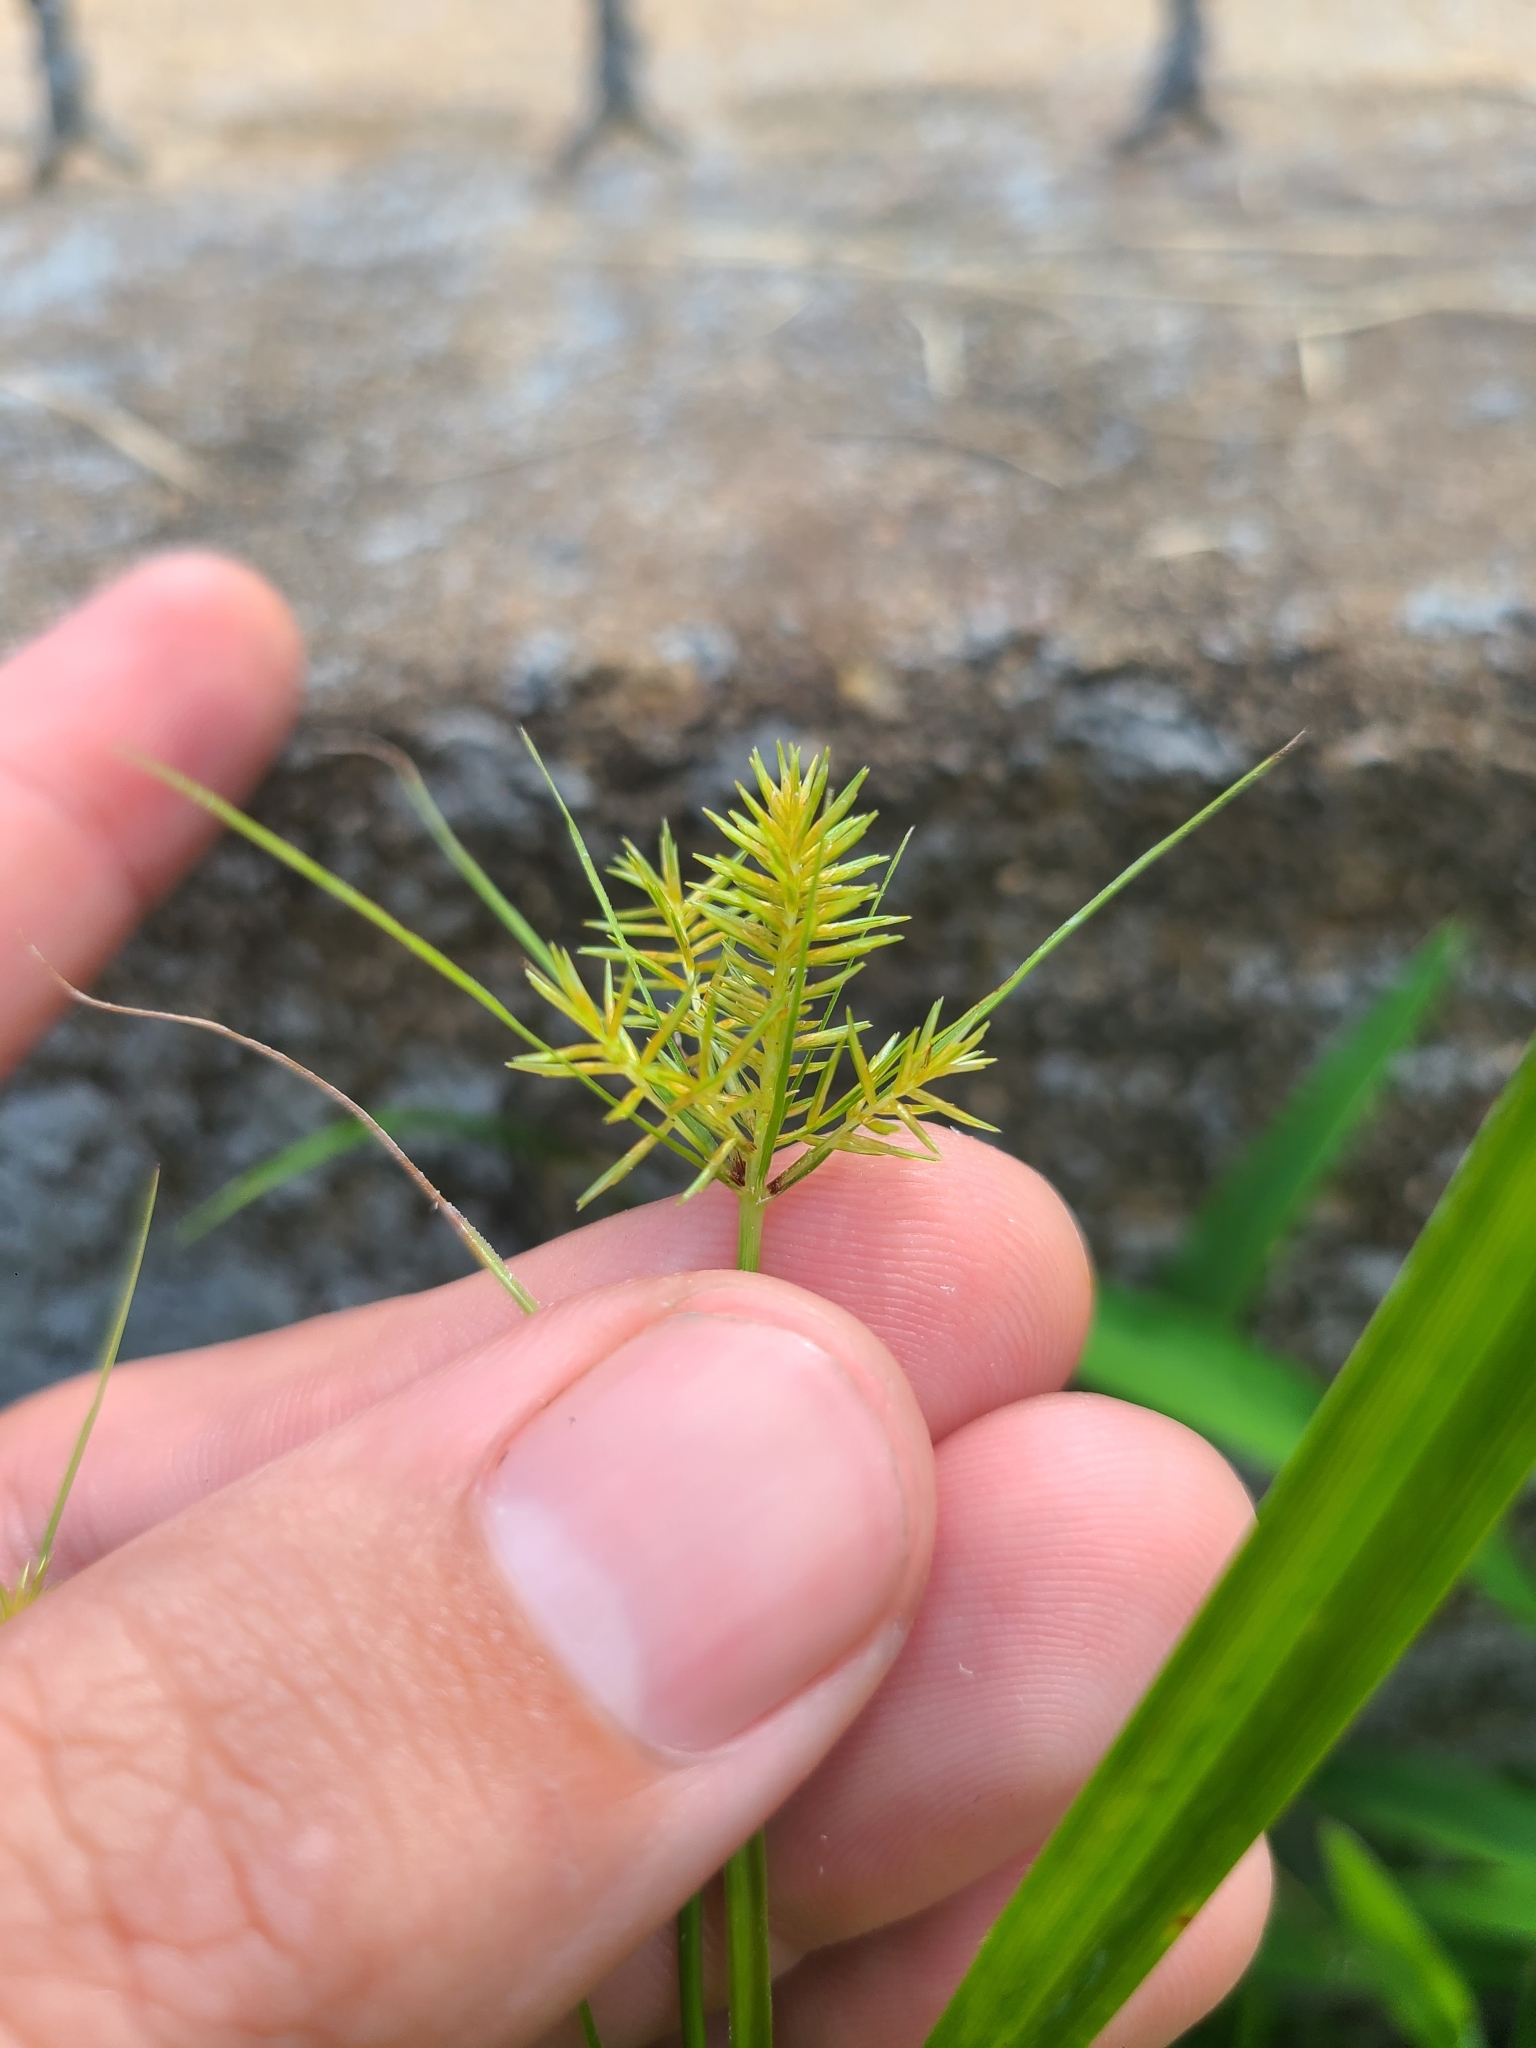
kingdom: Plantae
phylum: Tracheophyta
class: Liliopsida
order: Poales
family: Cyperaceae
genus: Cyperus
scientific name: Cyperus strigosus
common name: False nutsedge
